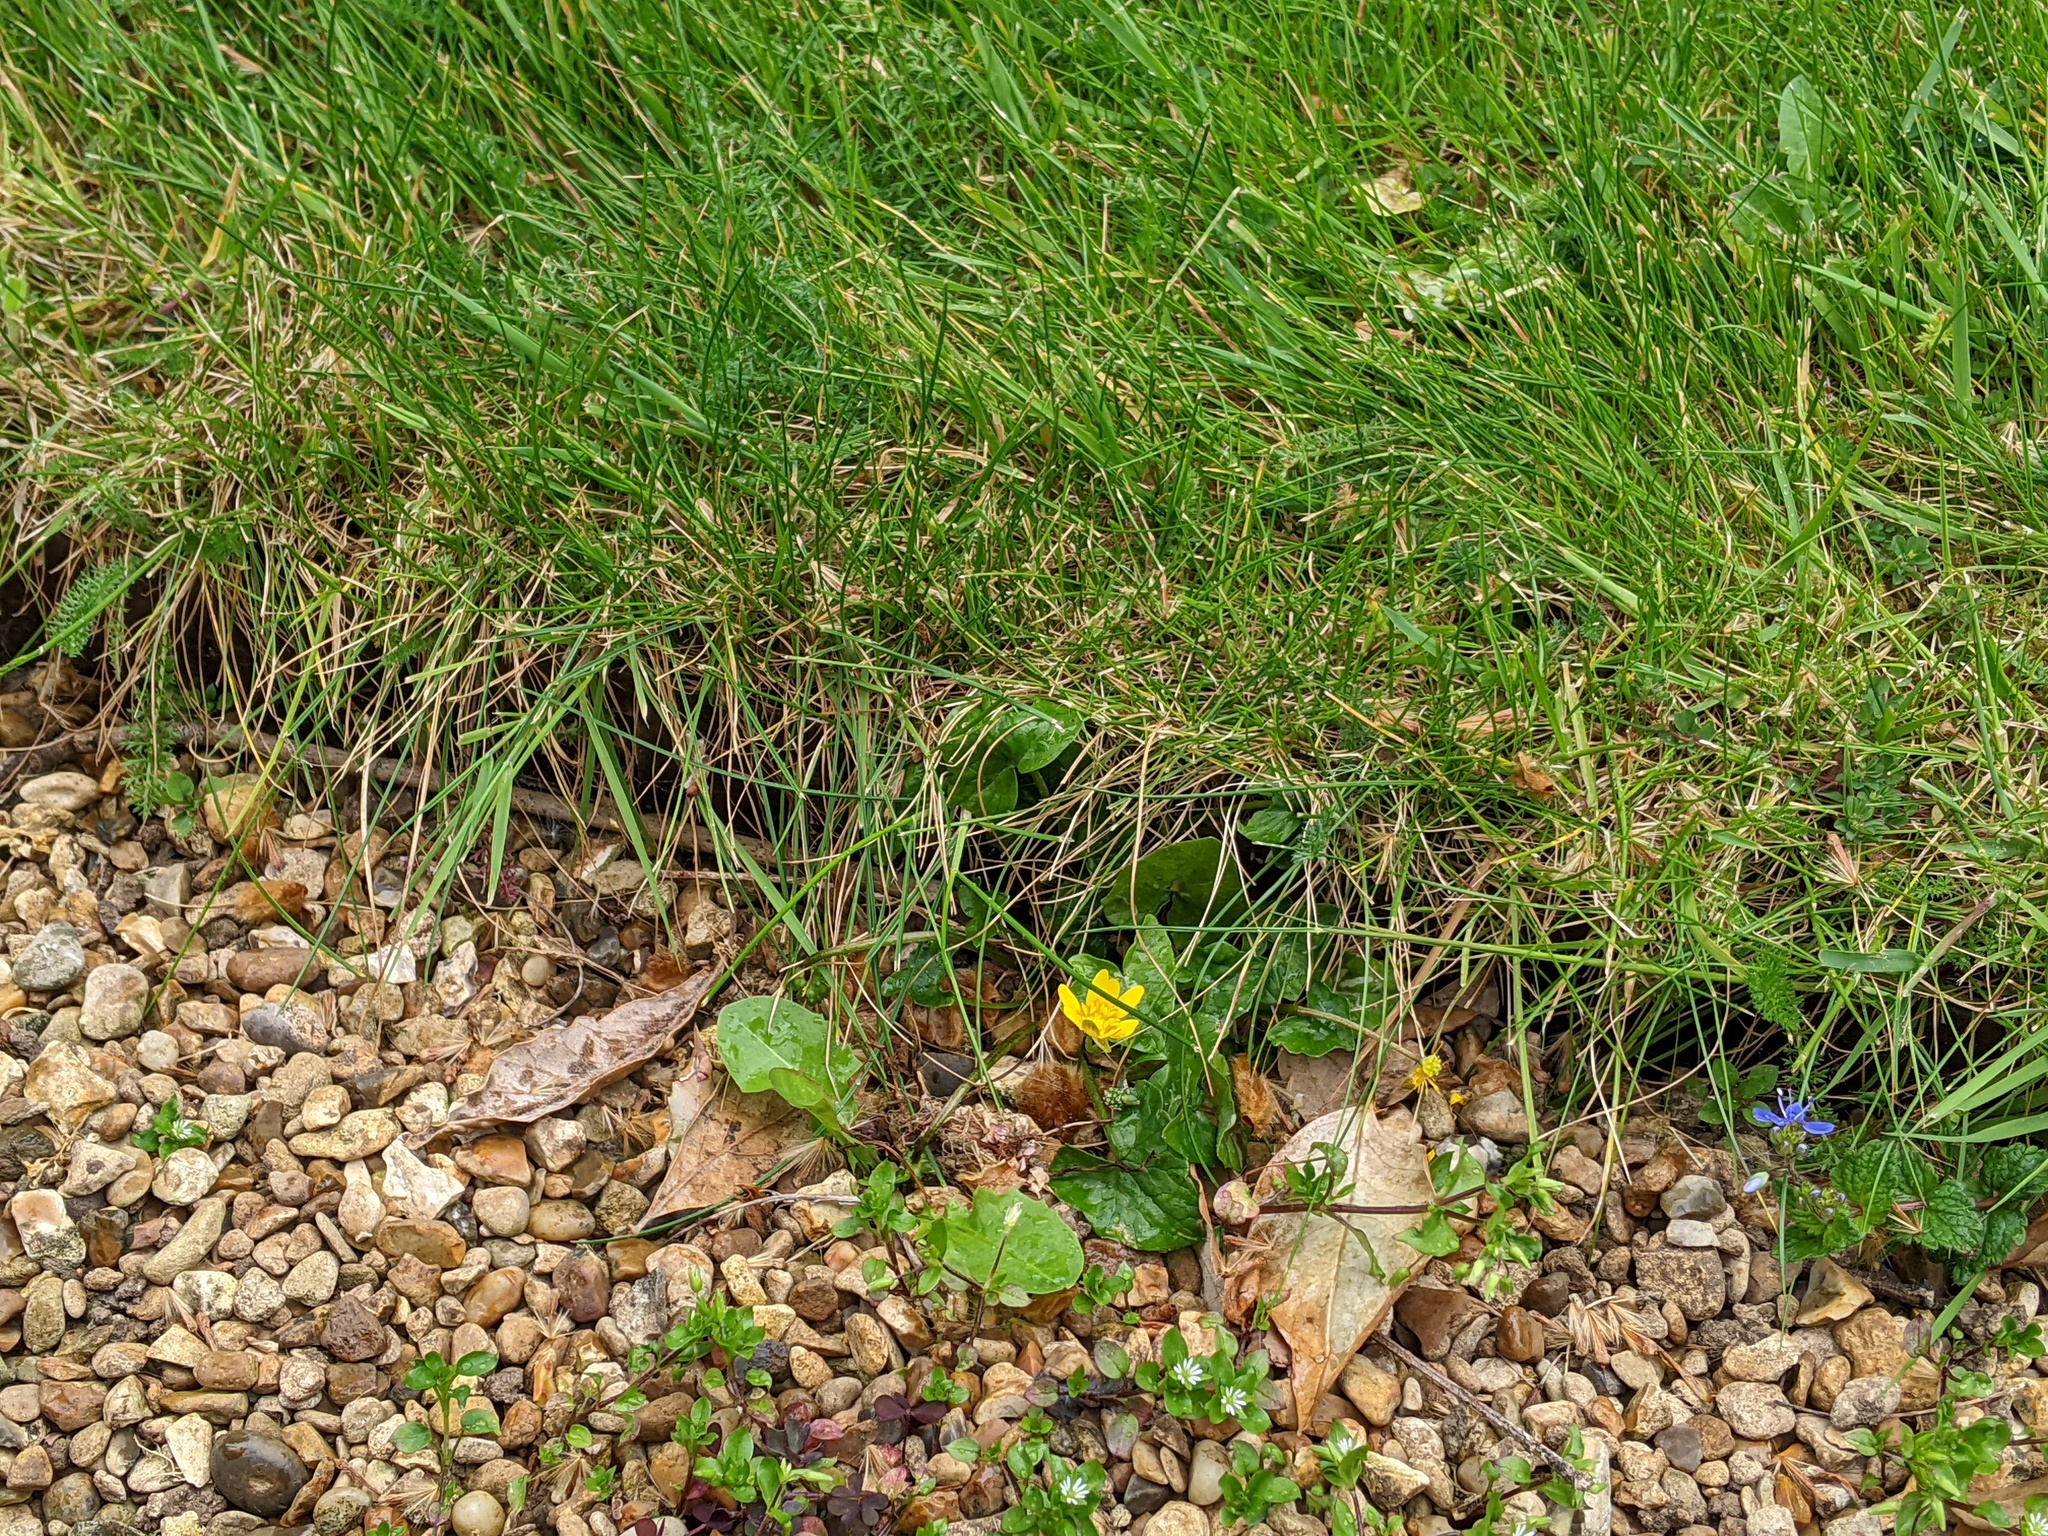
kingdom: Plantae
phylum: Tracheophyta
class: Magnoliopsida
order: Ranunculales
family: Ranunculaceae
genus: Ficaria
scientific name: Ficaria verna
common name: Lesser celandine
